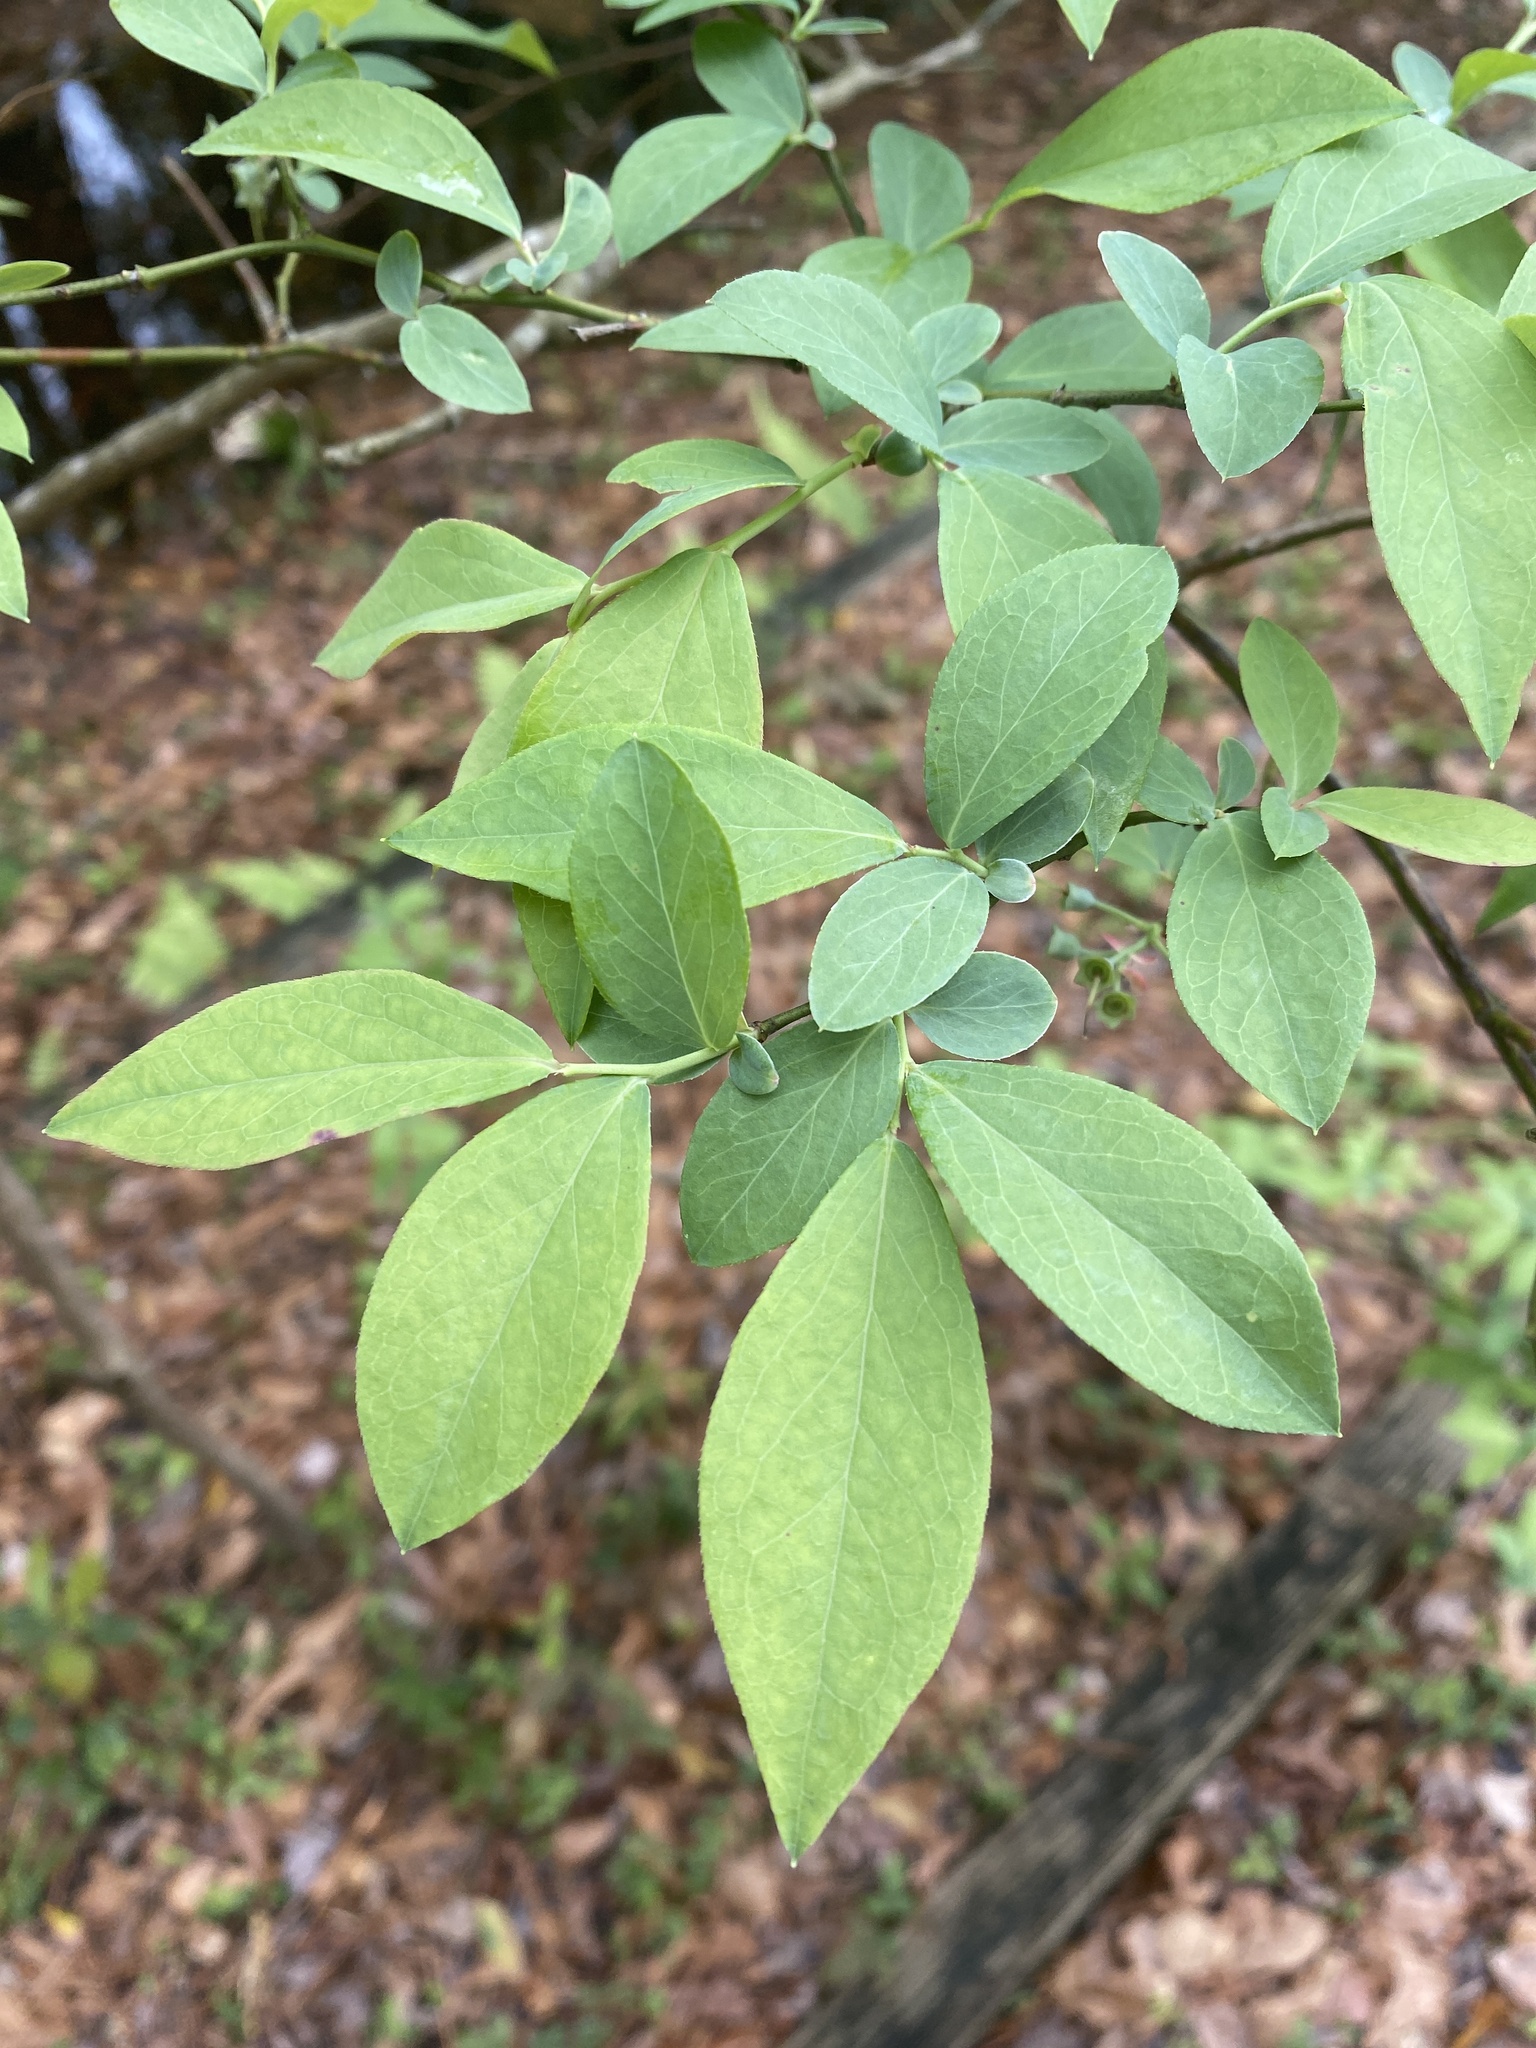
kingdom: Plantae
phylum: Tracheophyta
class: Magnoliopsida
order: Ericales
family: Ericaceae
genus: Vaccinium
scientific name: Vaccinium stamineum
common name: Deerberry
